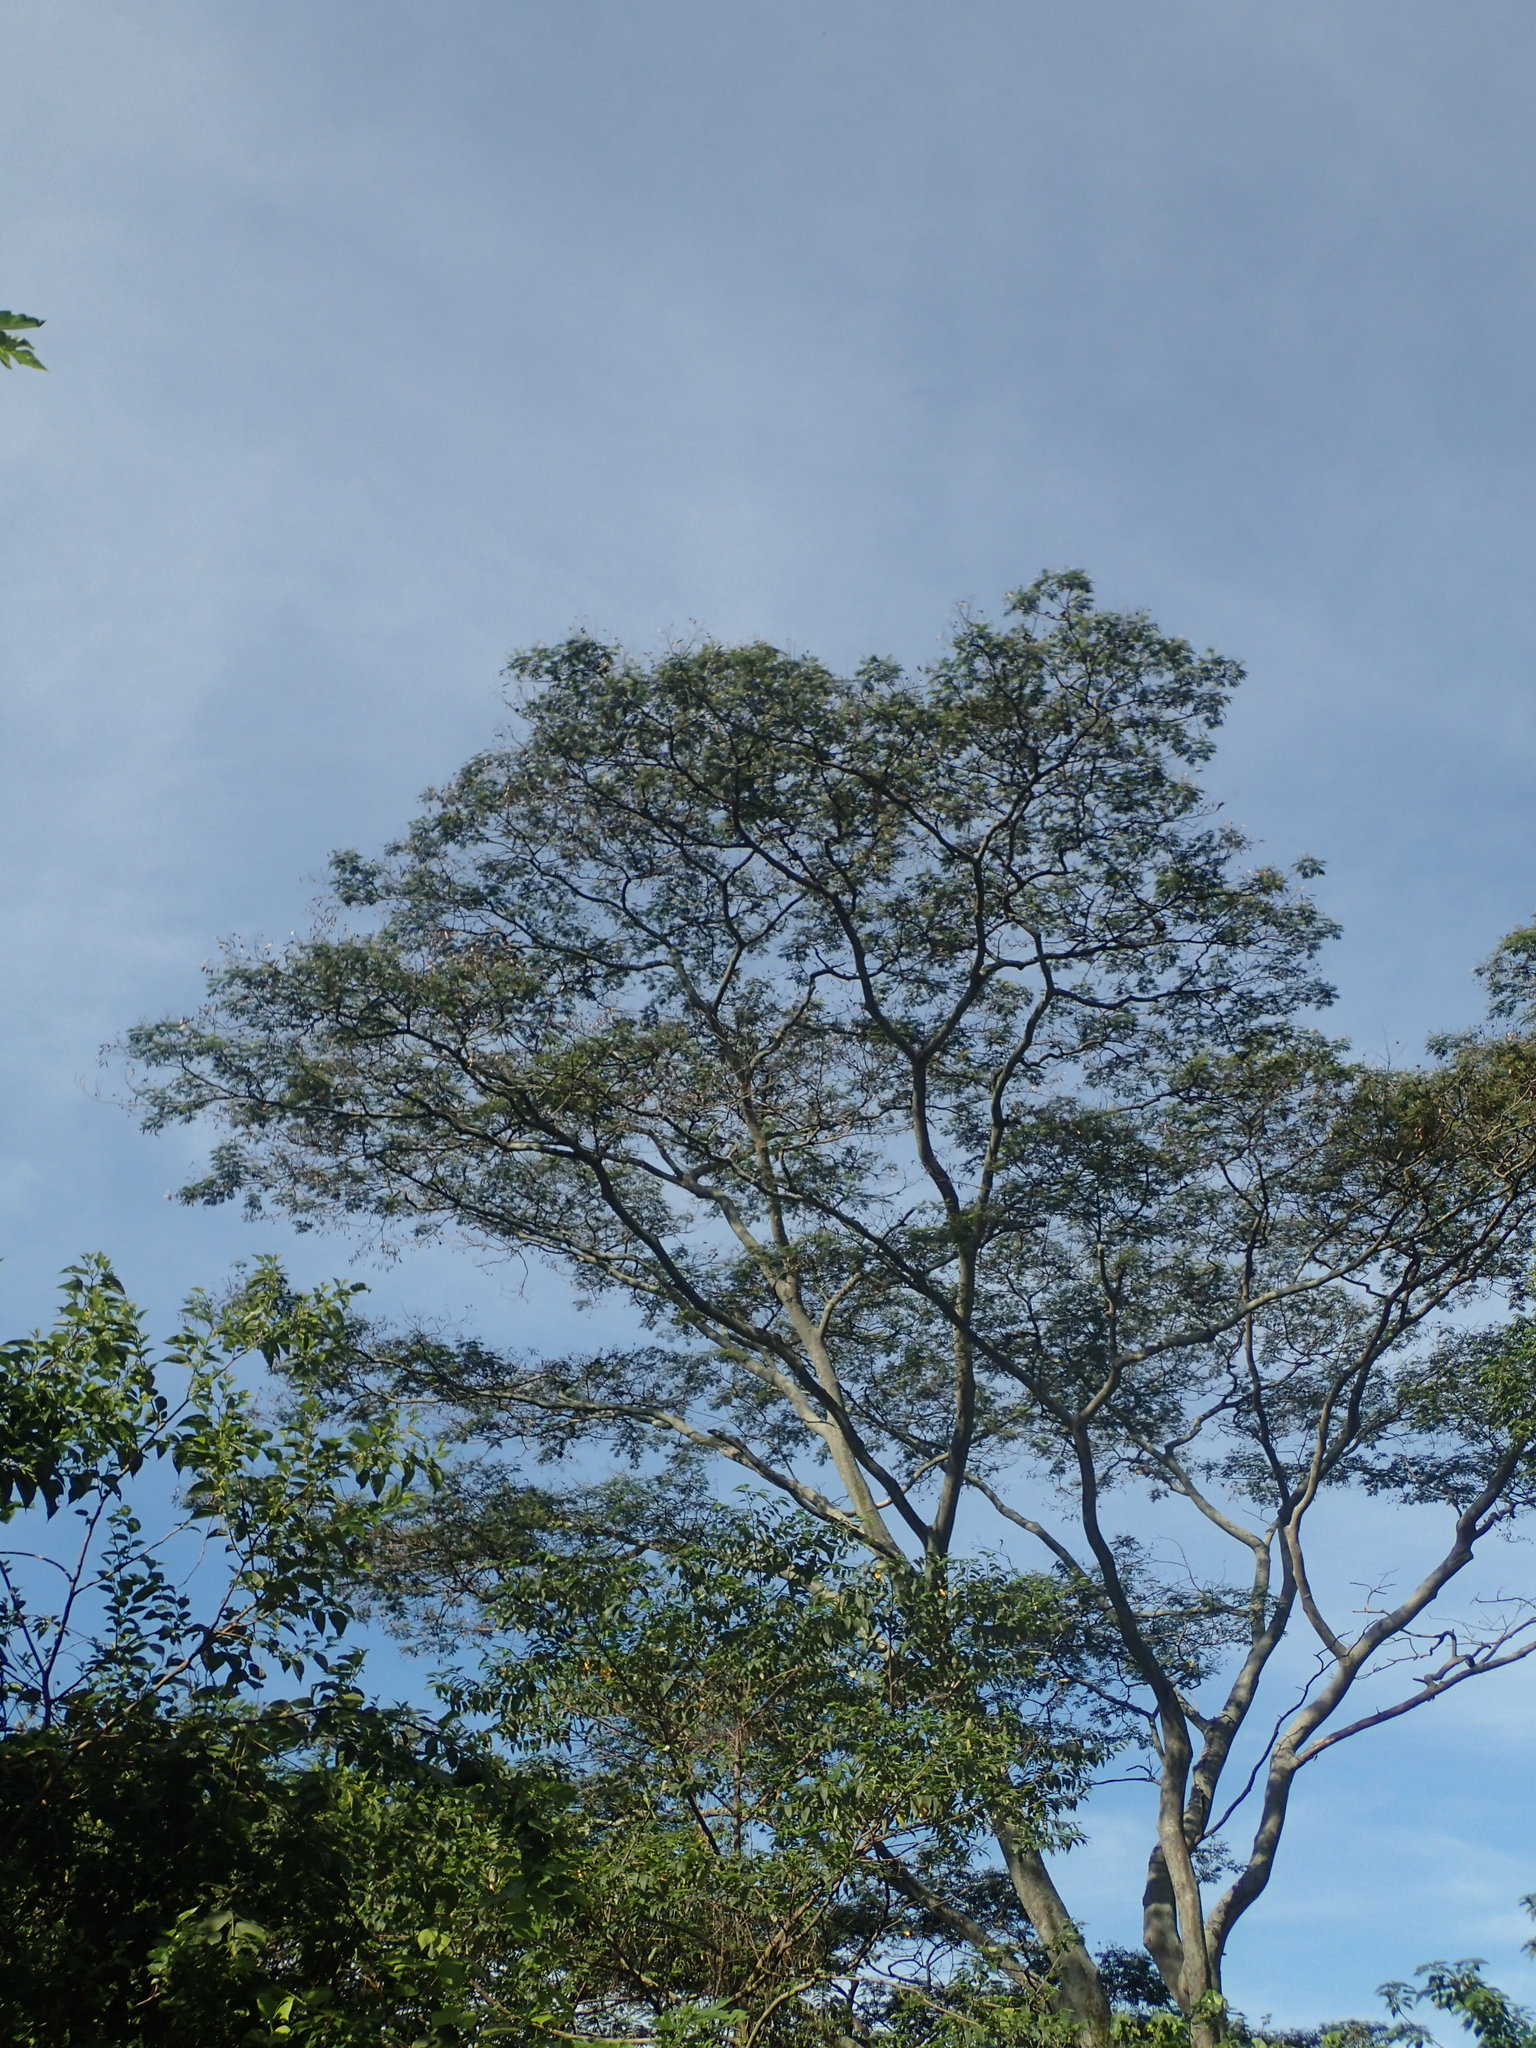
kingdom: Plantae
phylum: Tracheophyta
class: Magnoliopsida
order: Fabales
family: Fabaceae
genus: Falcataria
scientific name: Falcataria falcata
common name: Moluccan albizia
